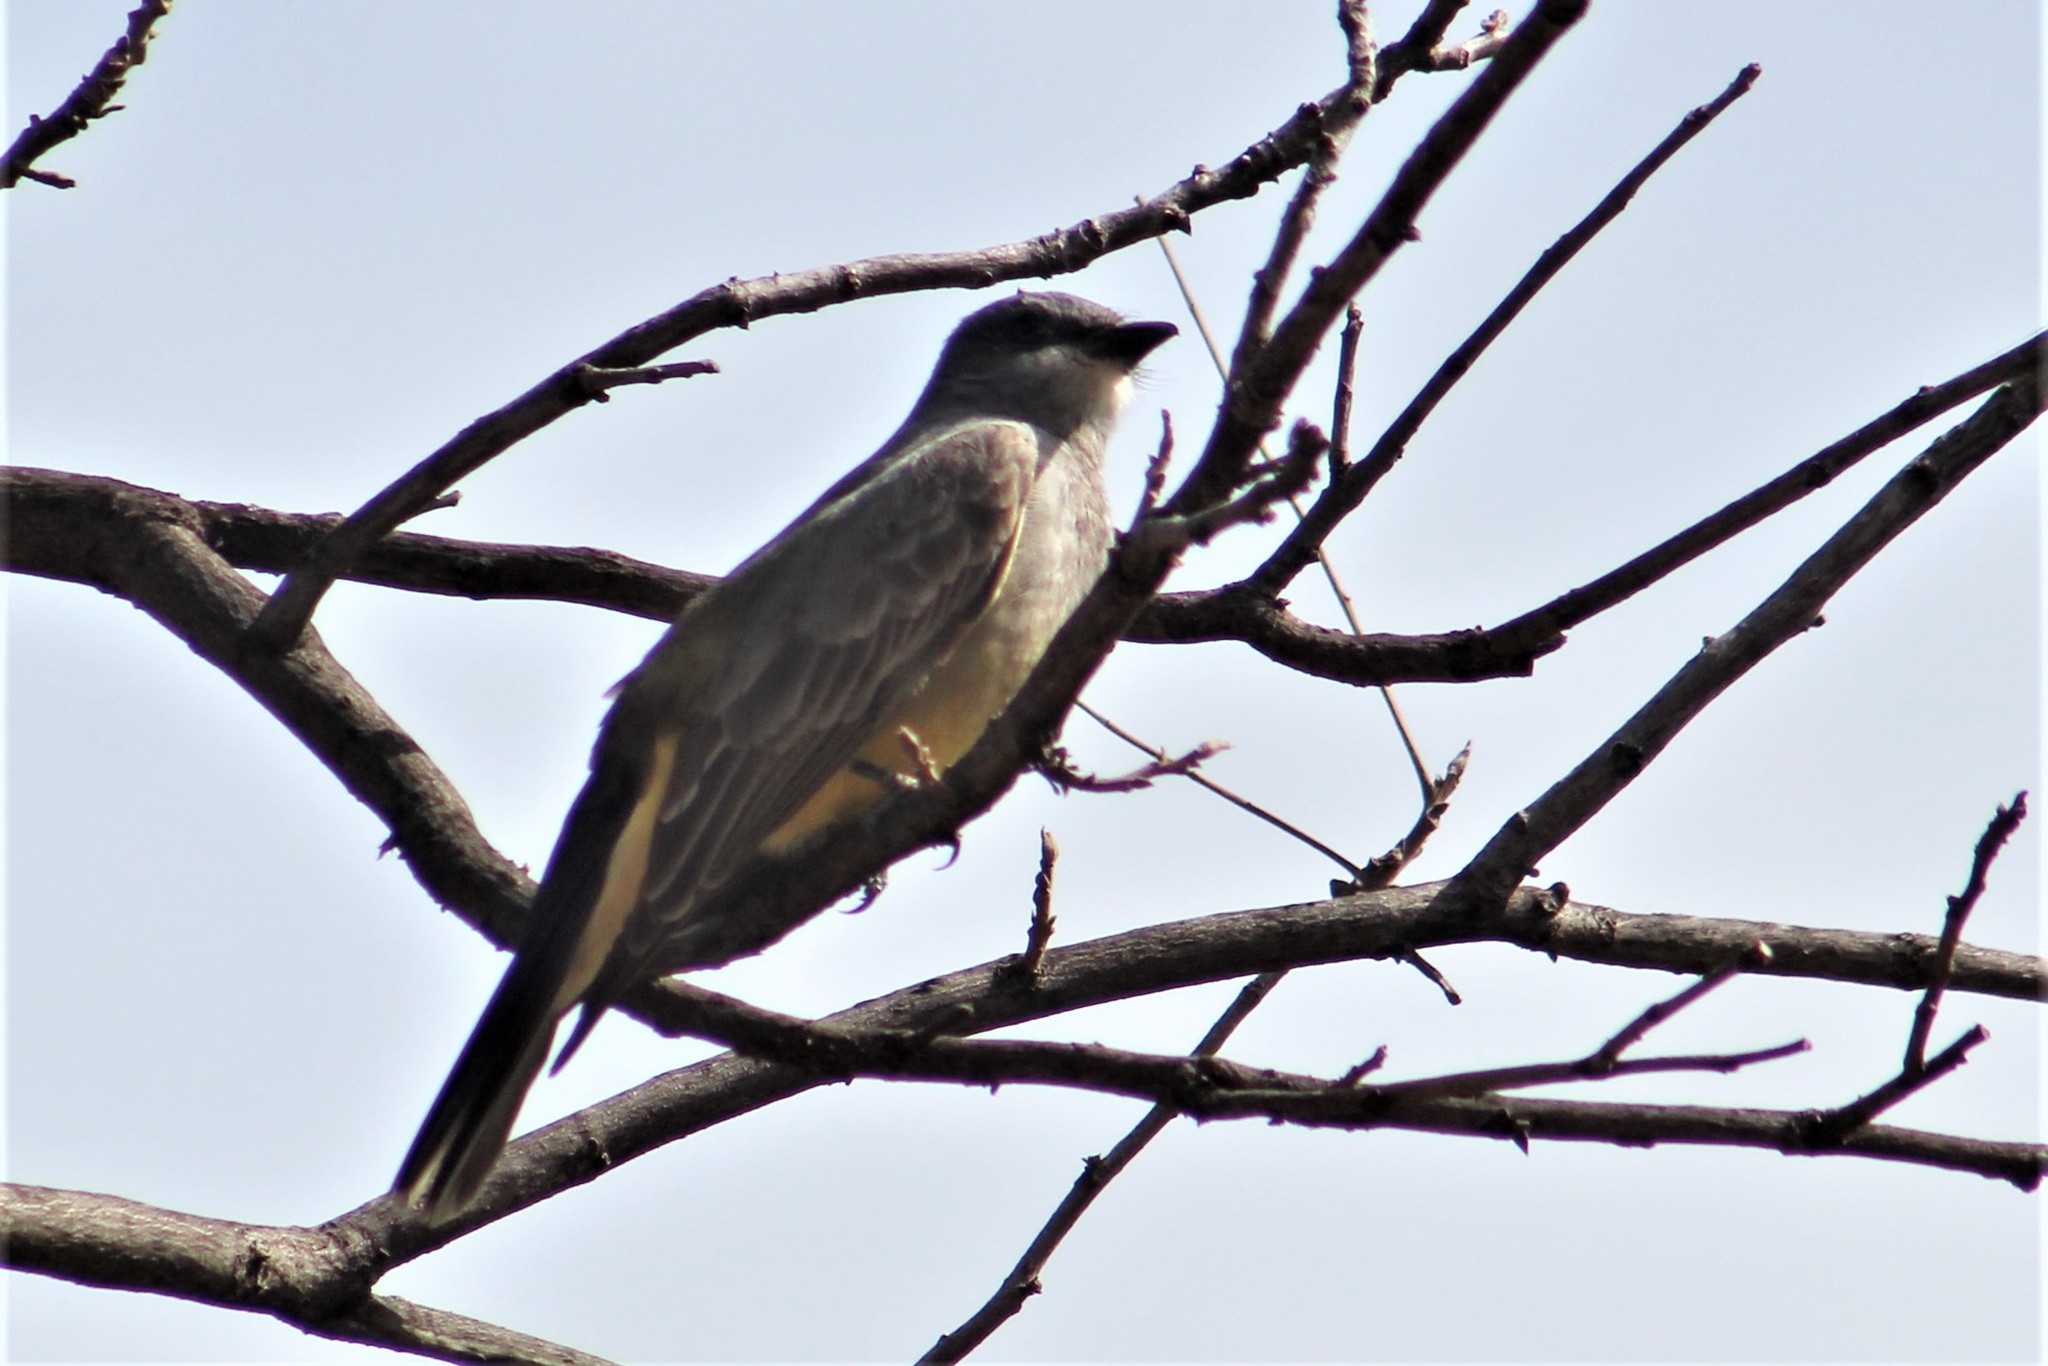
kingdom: Animalia
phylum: Chordata
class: Aves
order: Passeriformes
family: Tyrannidae
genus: Tyrannus
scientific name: Tyrannus vociferans
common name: Cassin's kingbird
